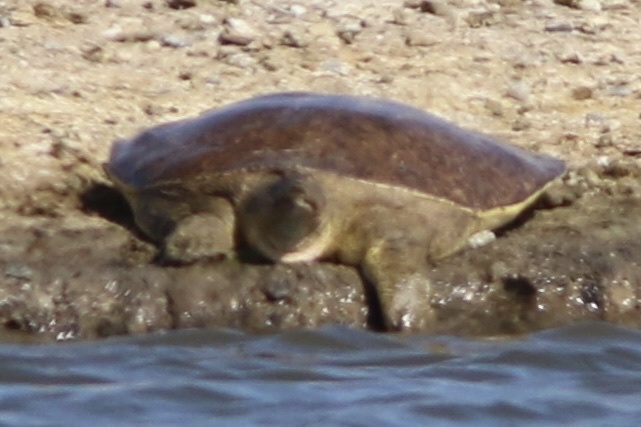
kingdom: Animalia
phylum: Chordata
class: Testudines
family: Trionychidae
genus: Apalone
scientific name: Apalone spinifera
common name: Spiny softshell turtle
